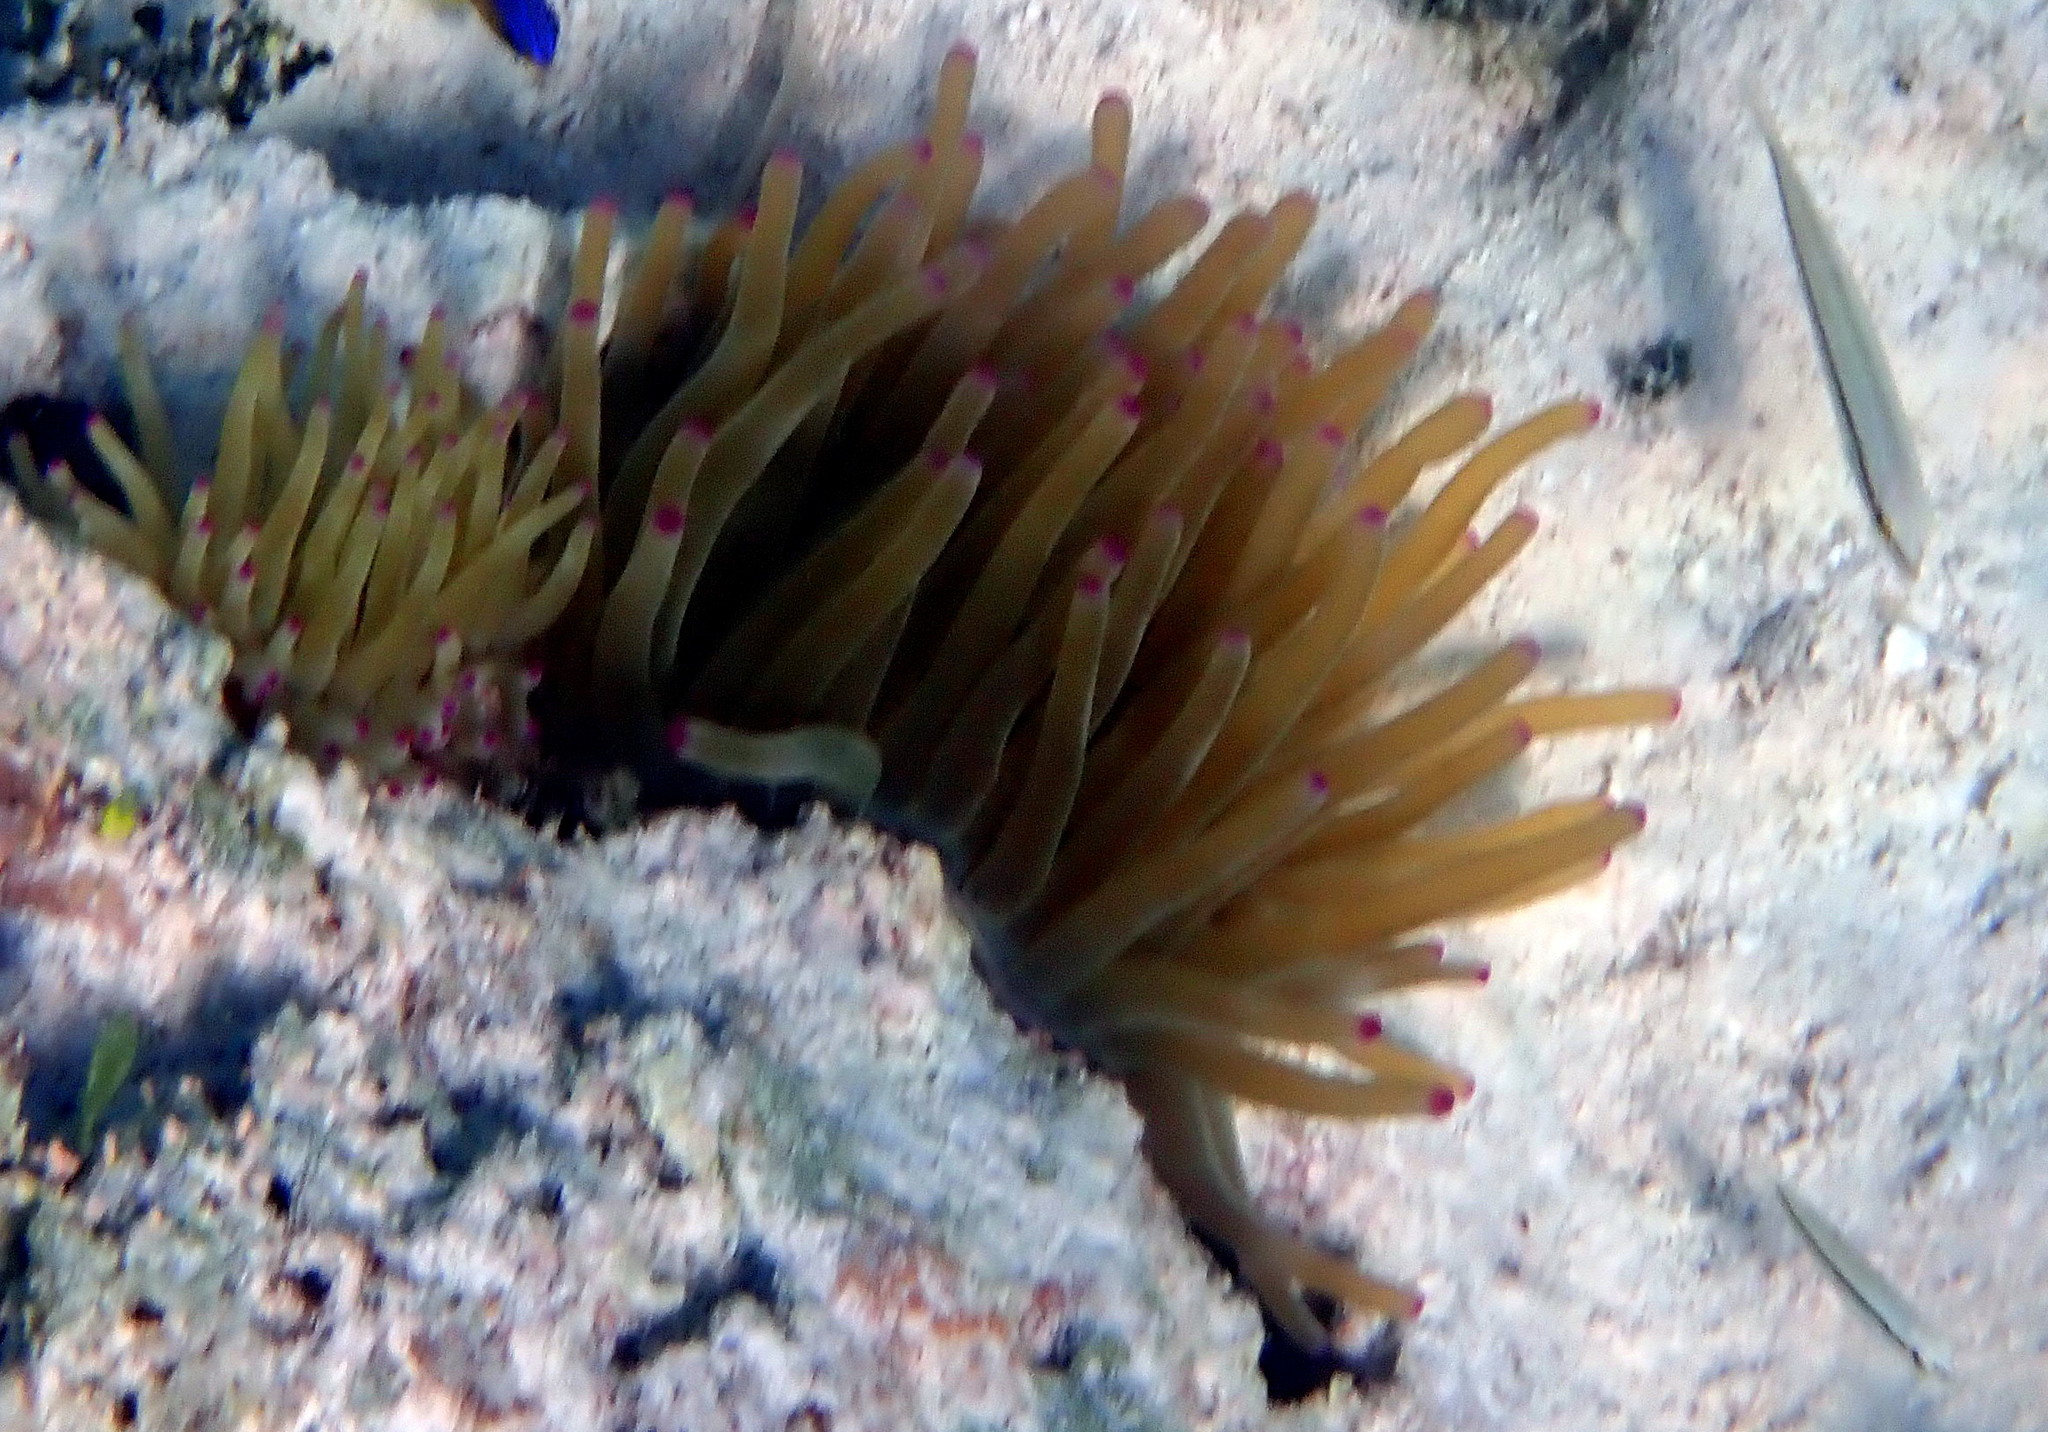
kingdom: Animalia
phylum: Cnidaria
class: Anthozoa
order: Actiniaria
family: Actiniidae
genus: Condylactis
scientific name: Condylactis gigantea
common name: Giant caribbean anemone
